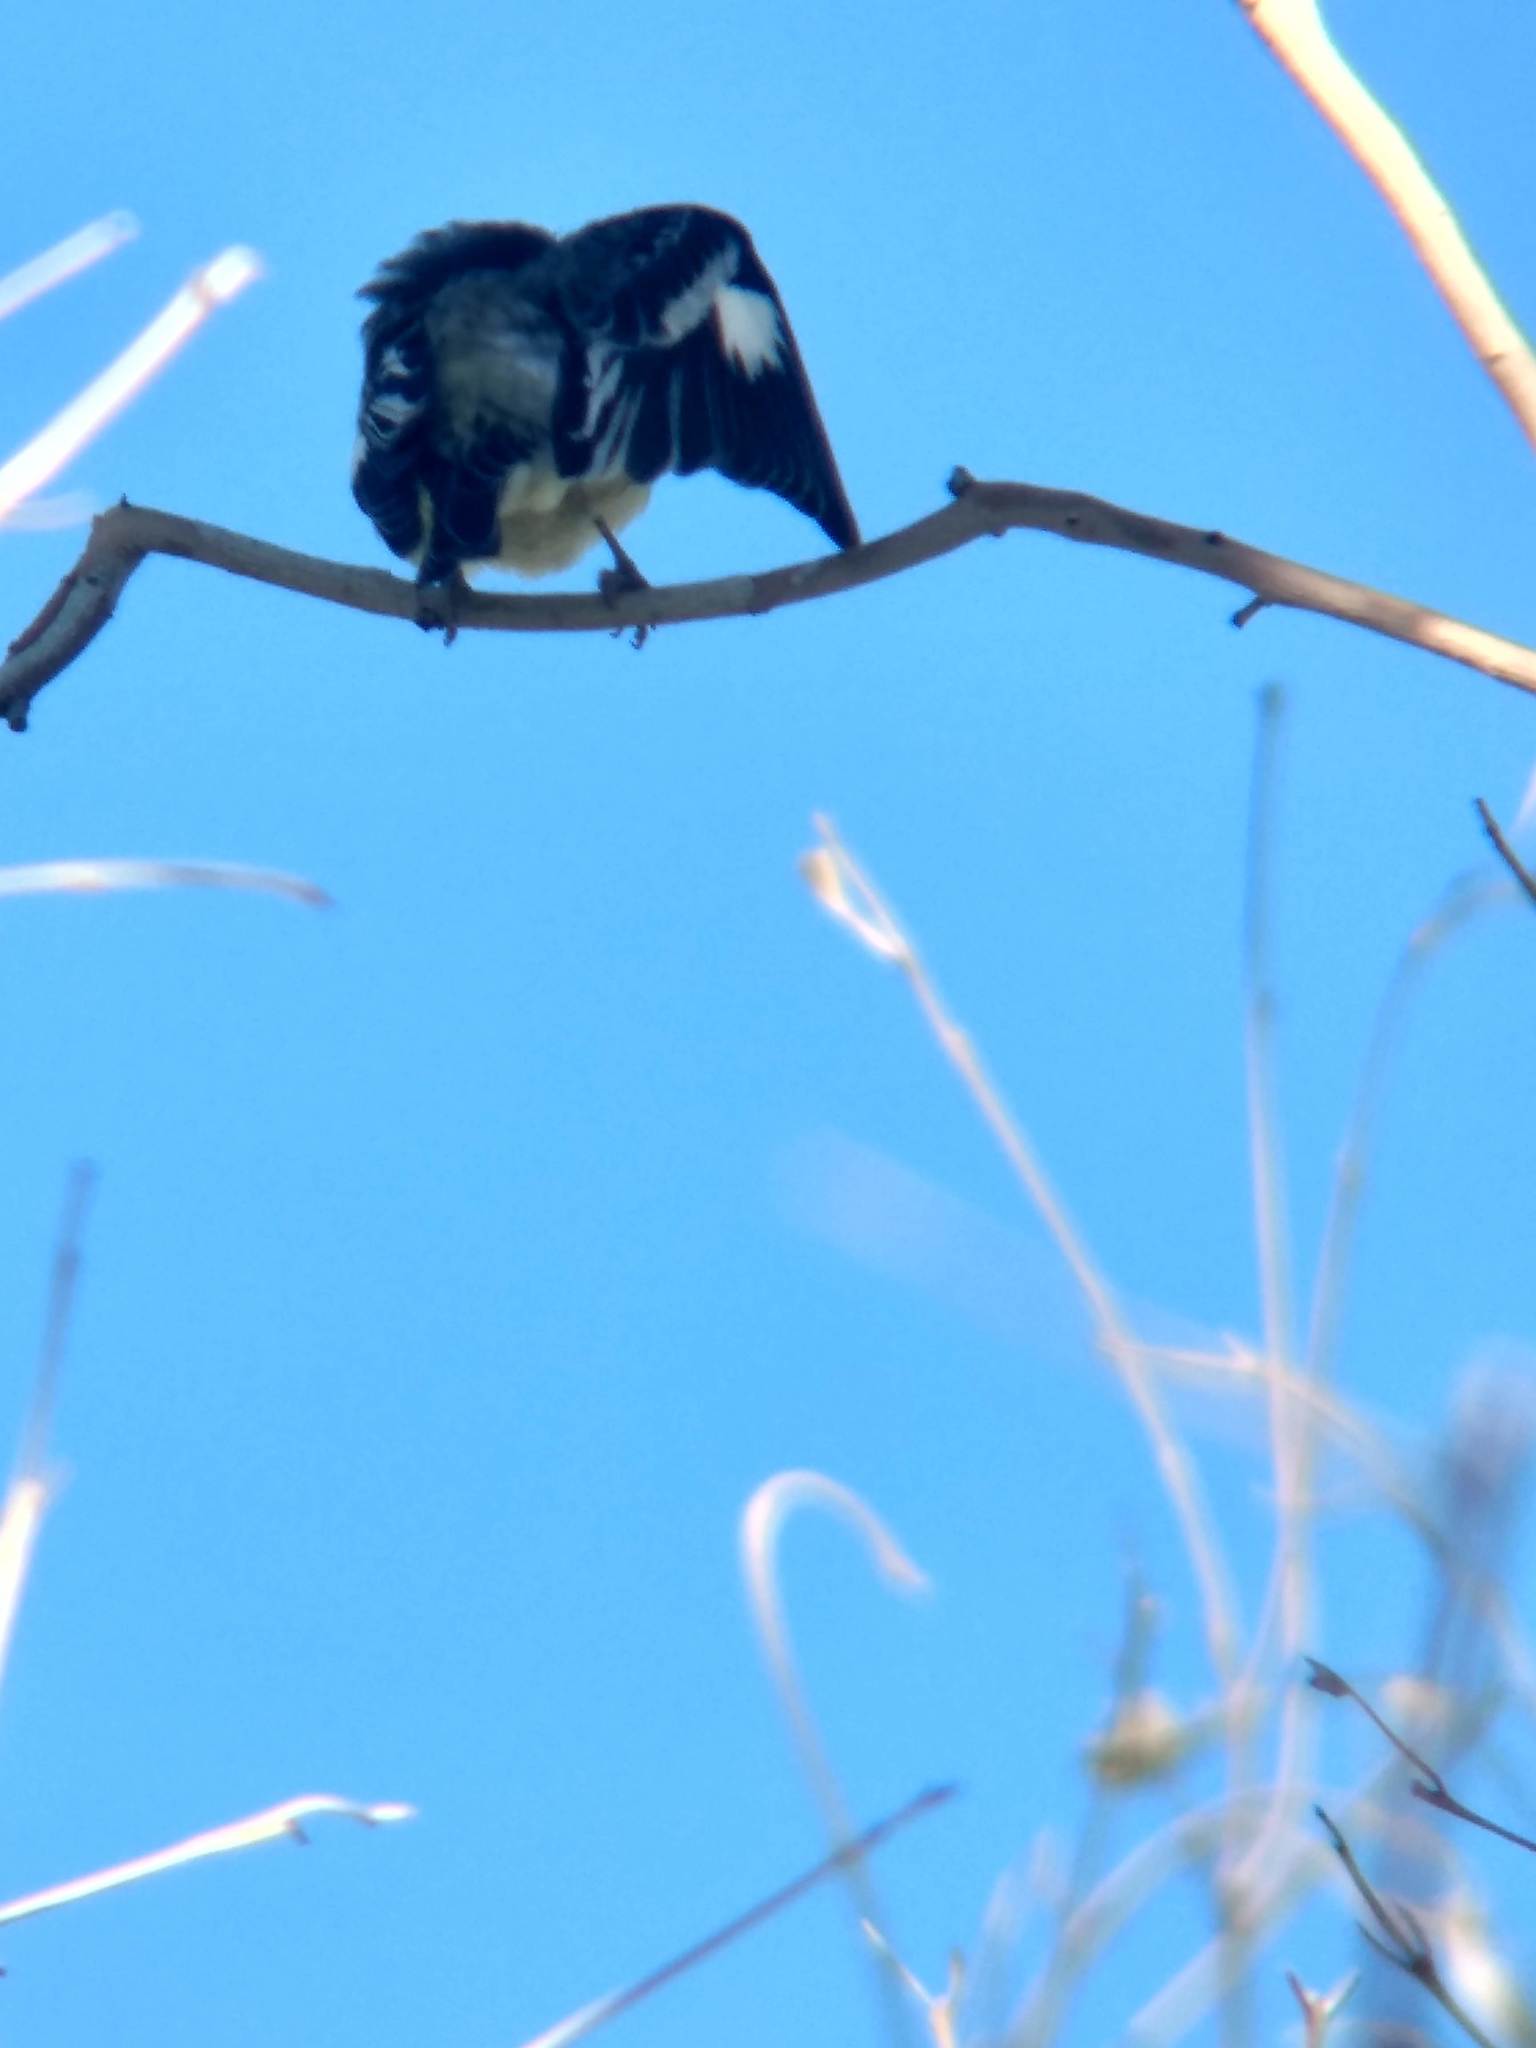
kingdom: Animalia
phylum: Chordata
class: Aves
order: Passeriformes
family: Fringillidae
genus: Spinus
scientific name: Spinus psaltria
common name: Lesser goldfinch
